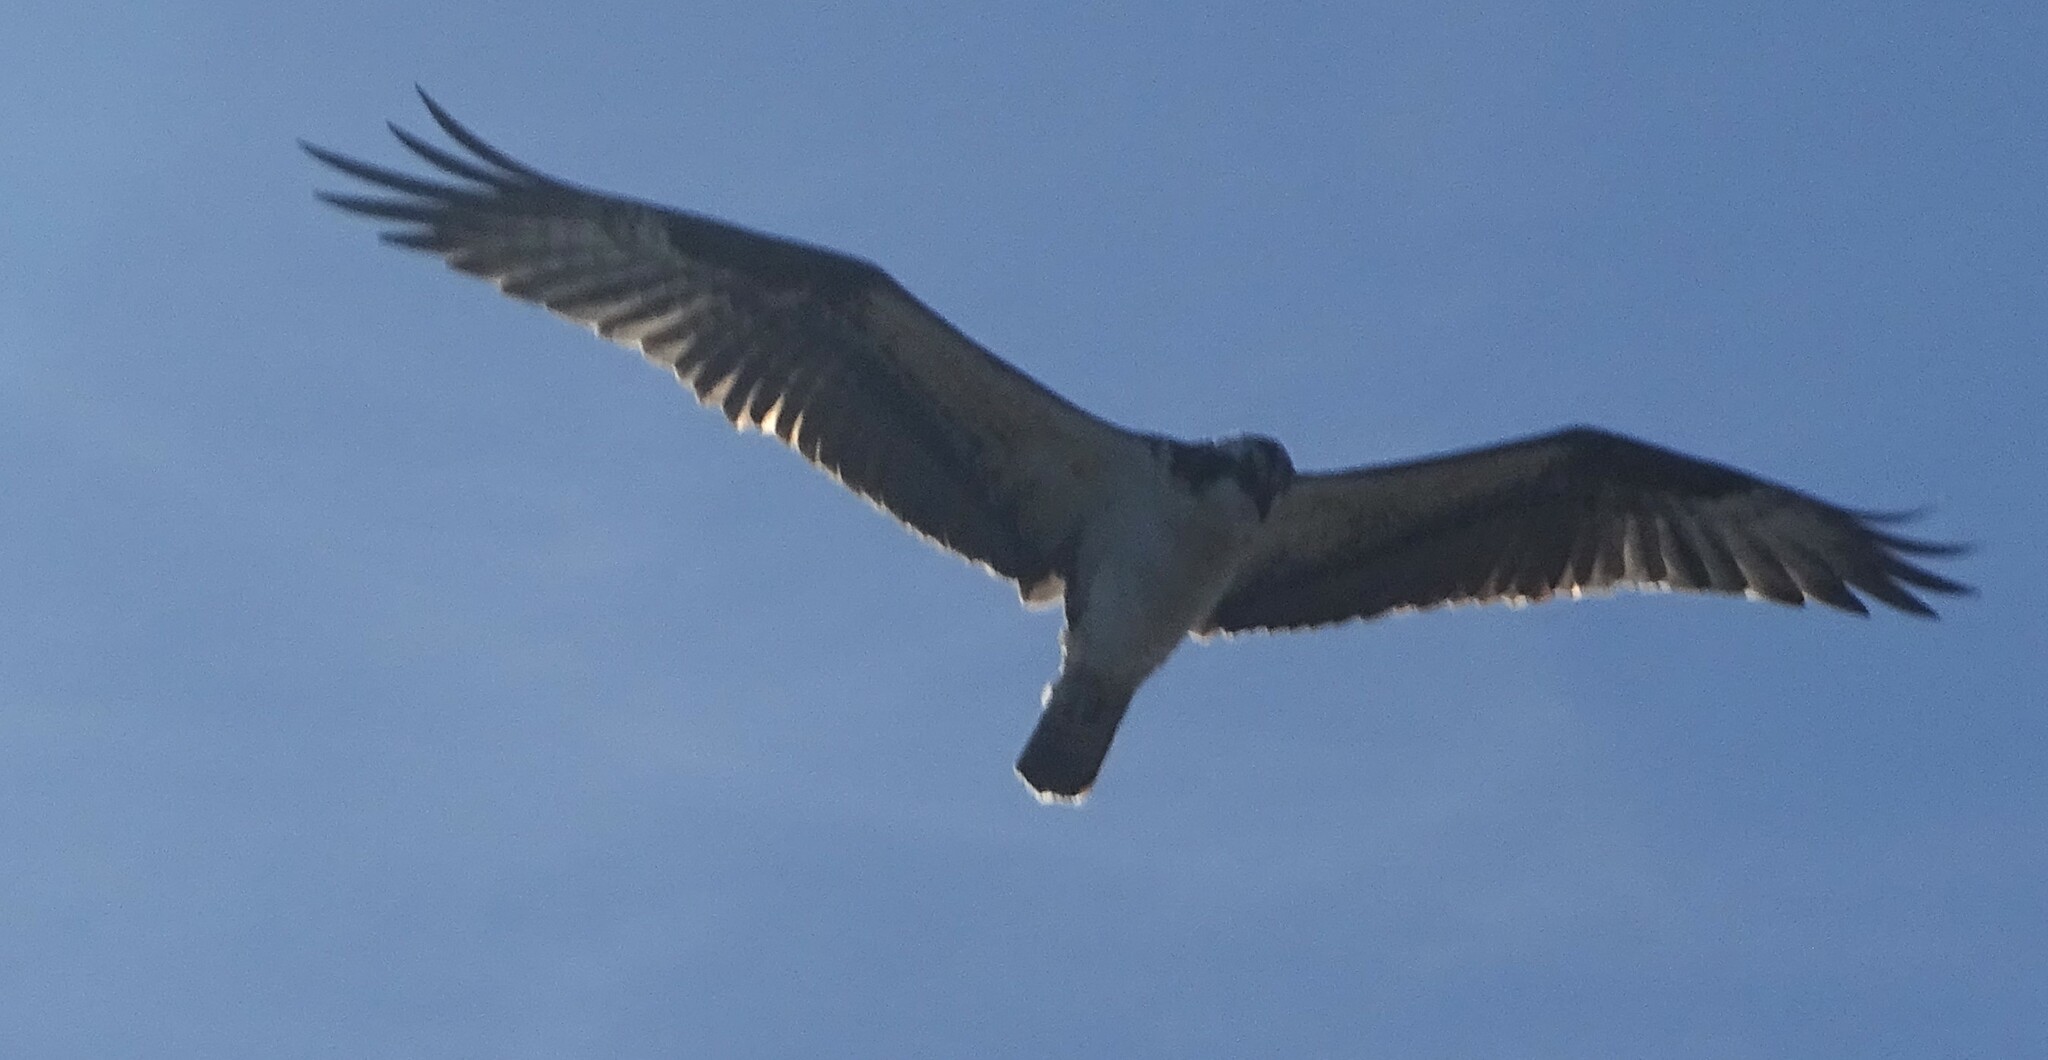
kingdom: Animalia
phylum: Chordata
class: Aves
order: Accipitriformes
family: Pandionidae
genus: Pandion
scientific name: Pandion haliaetus
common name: Osprey
